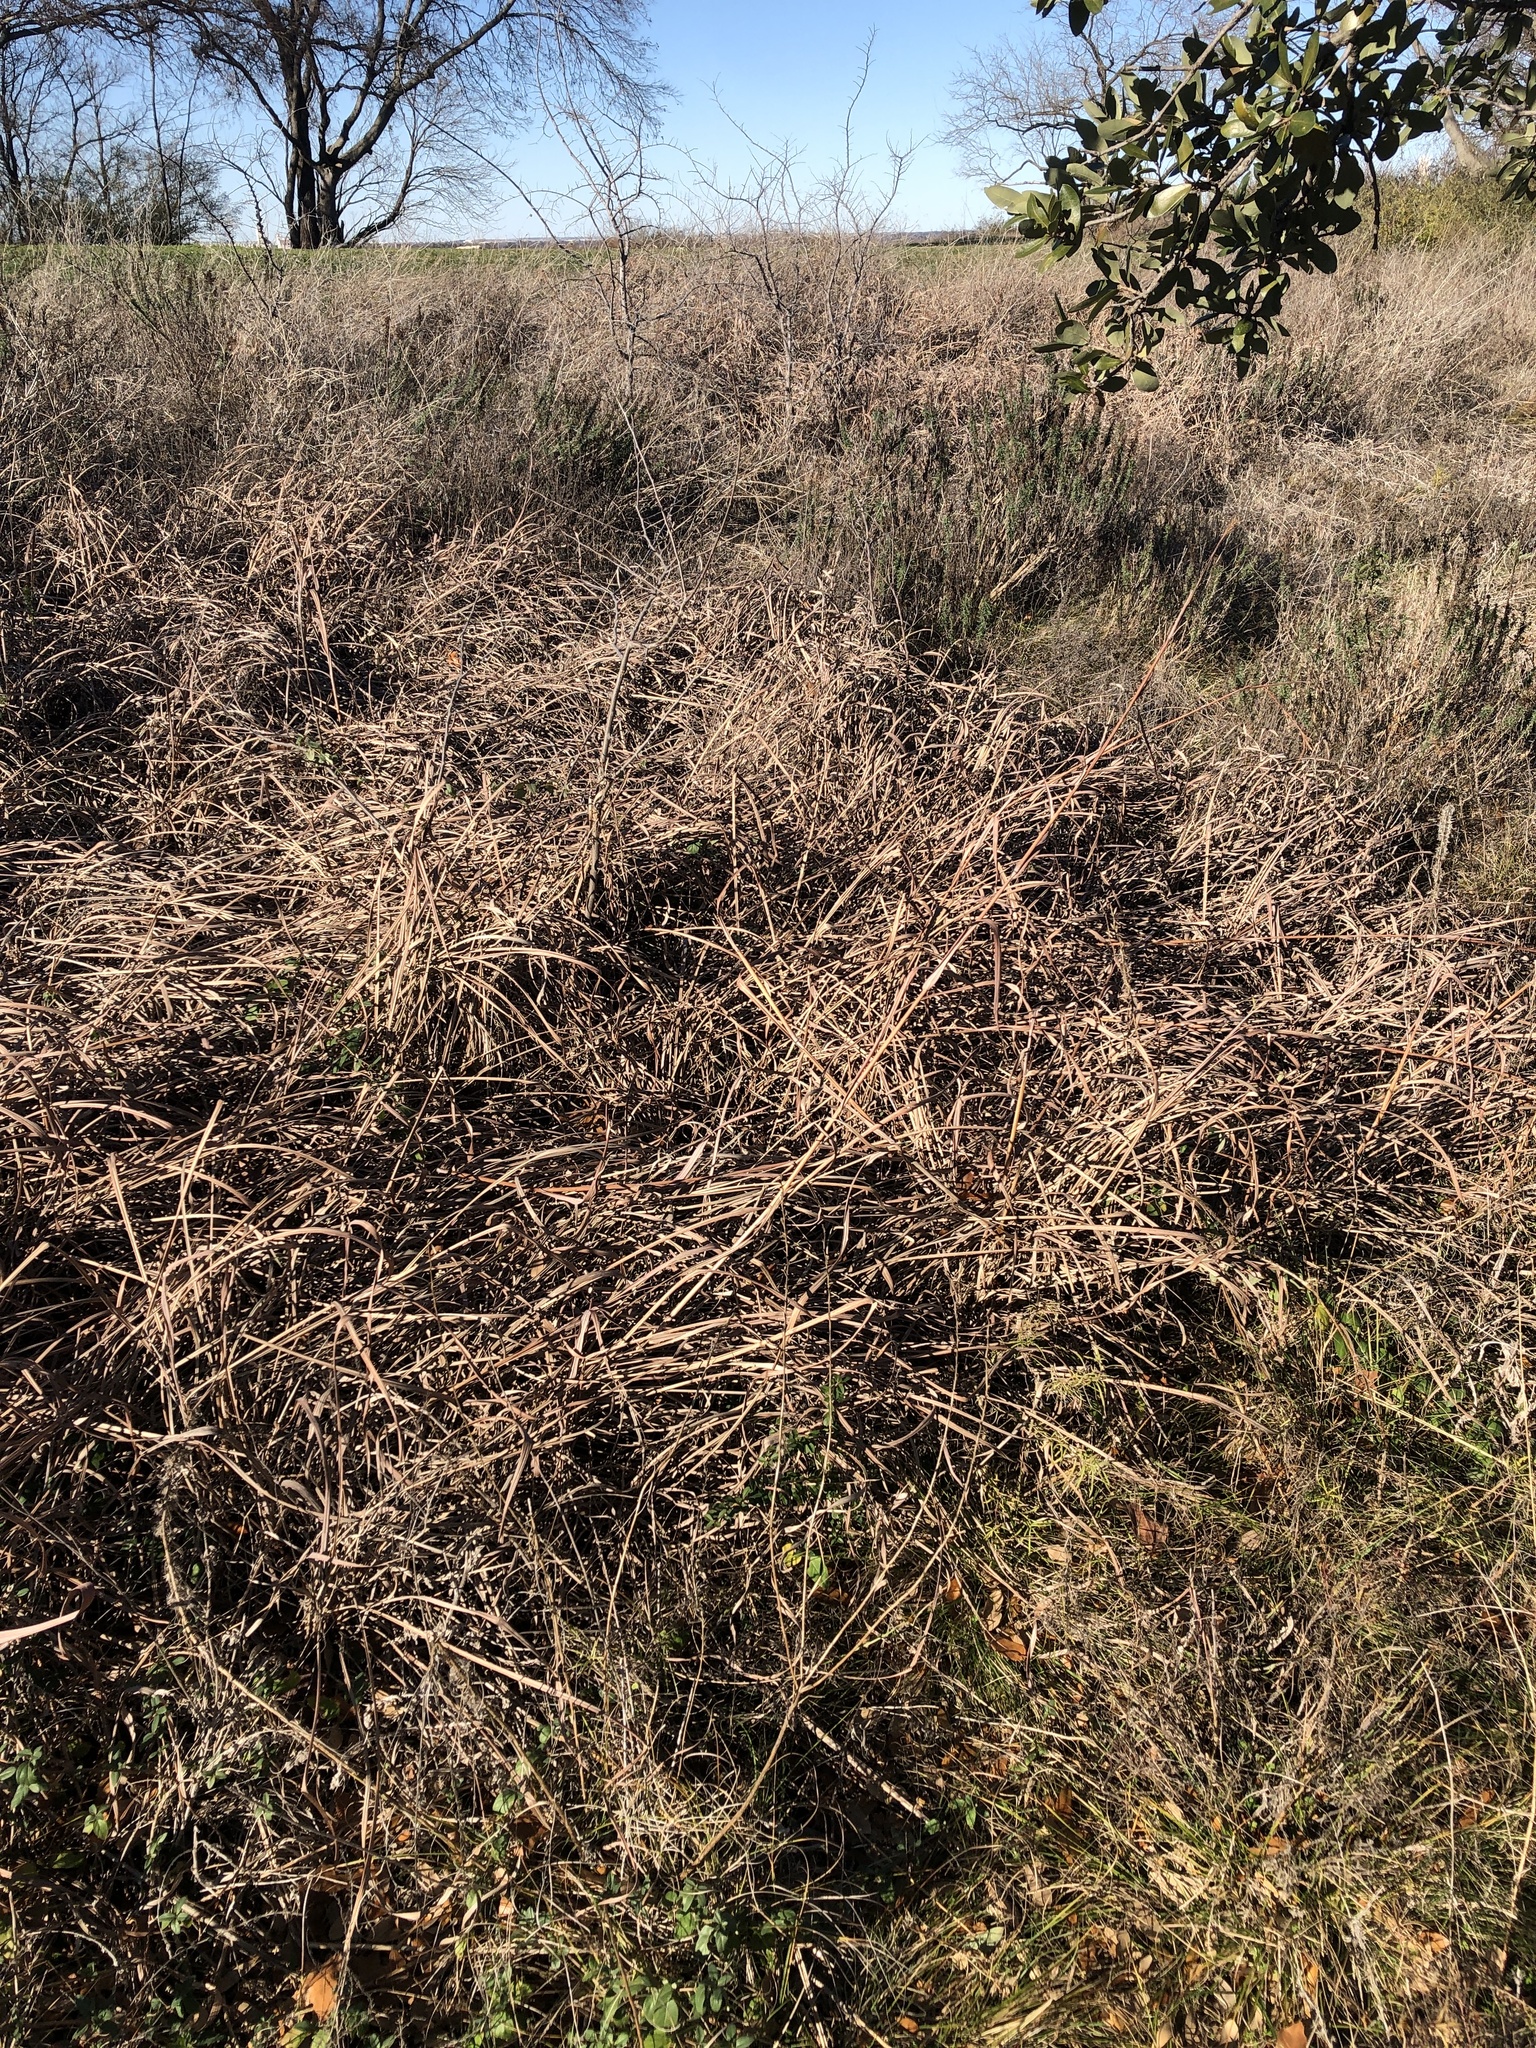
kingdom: Plantae
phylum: Tracheophyta
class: Liliopsida
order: Poales
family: Poaceae
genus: Andropogon
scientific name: Andropogon gerardi
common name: Big bluestem
